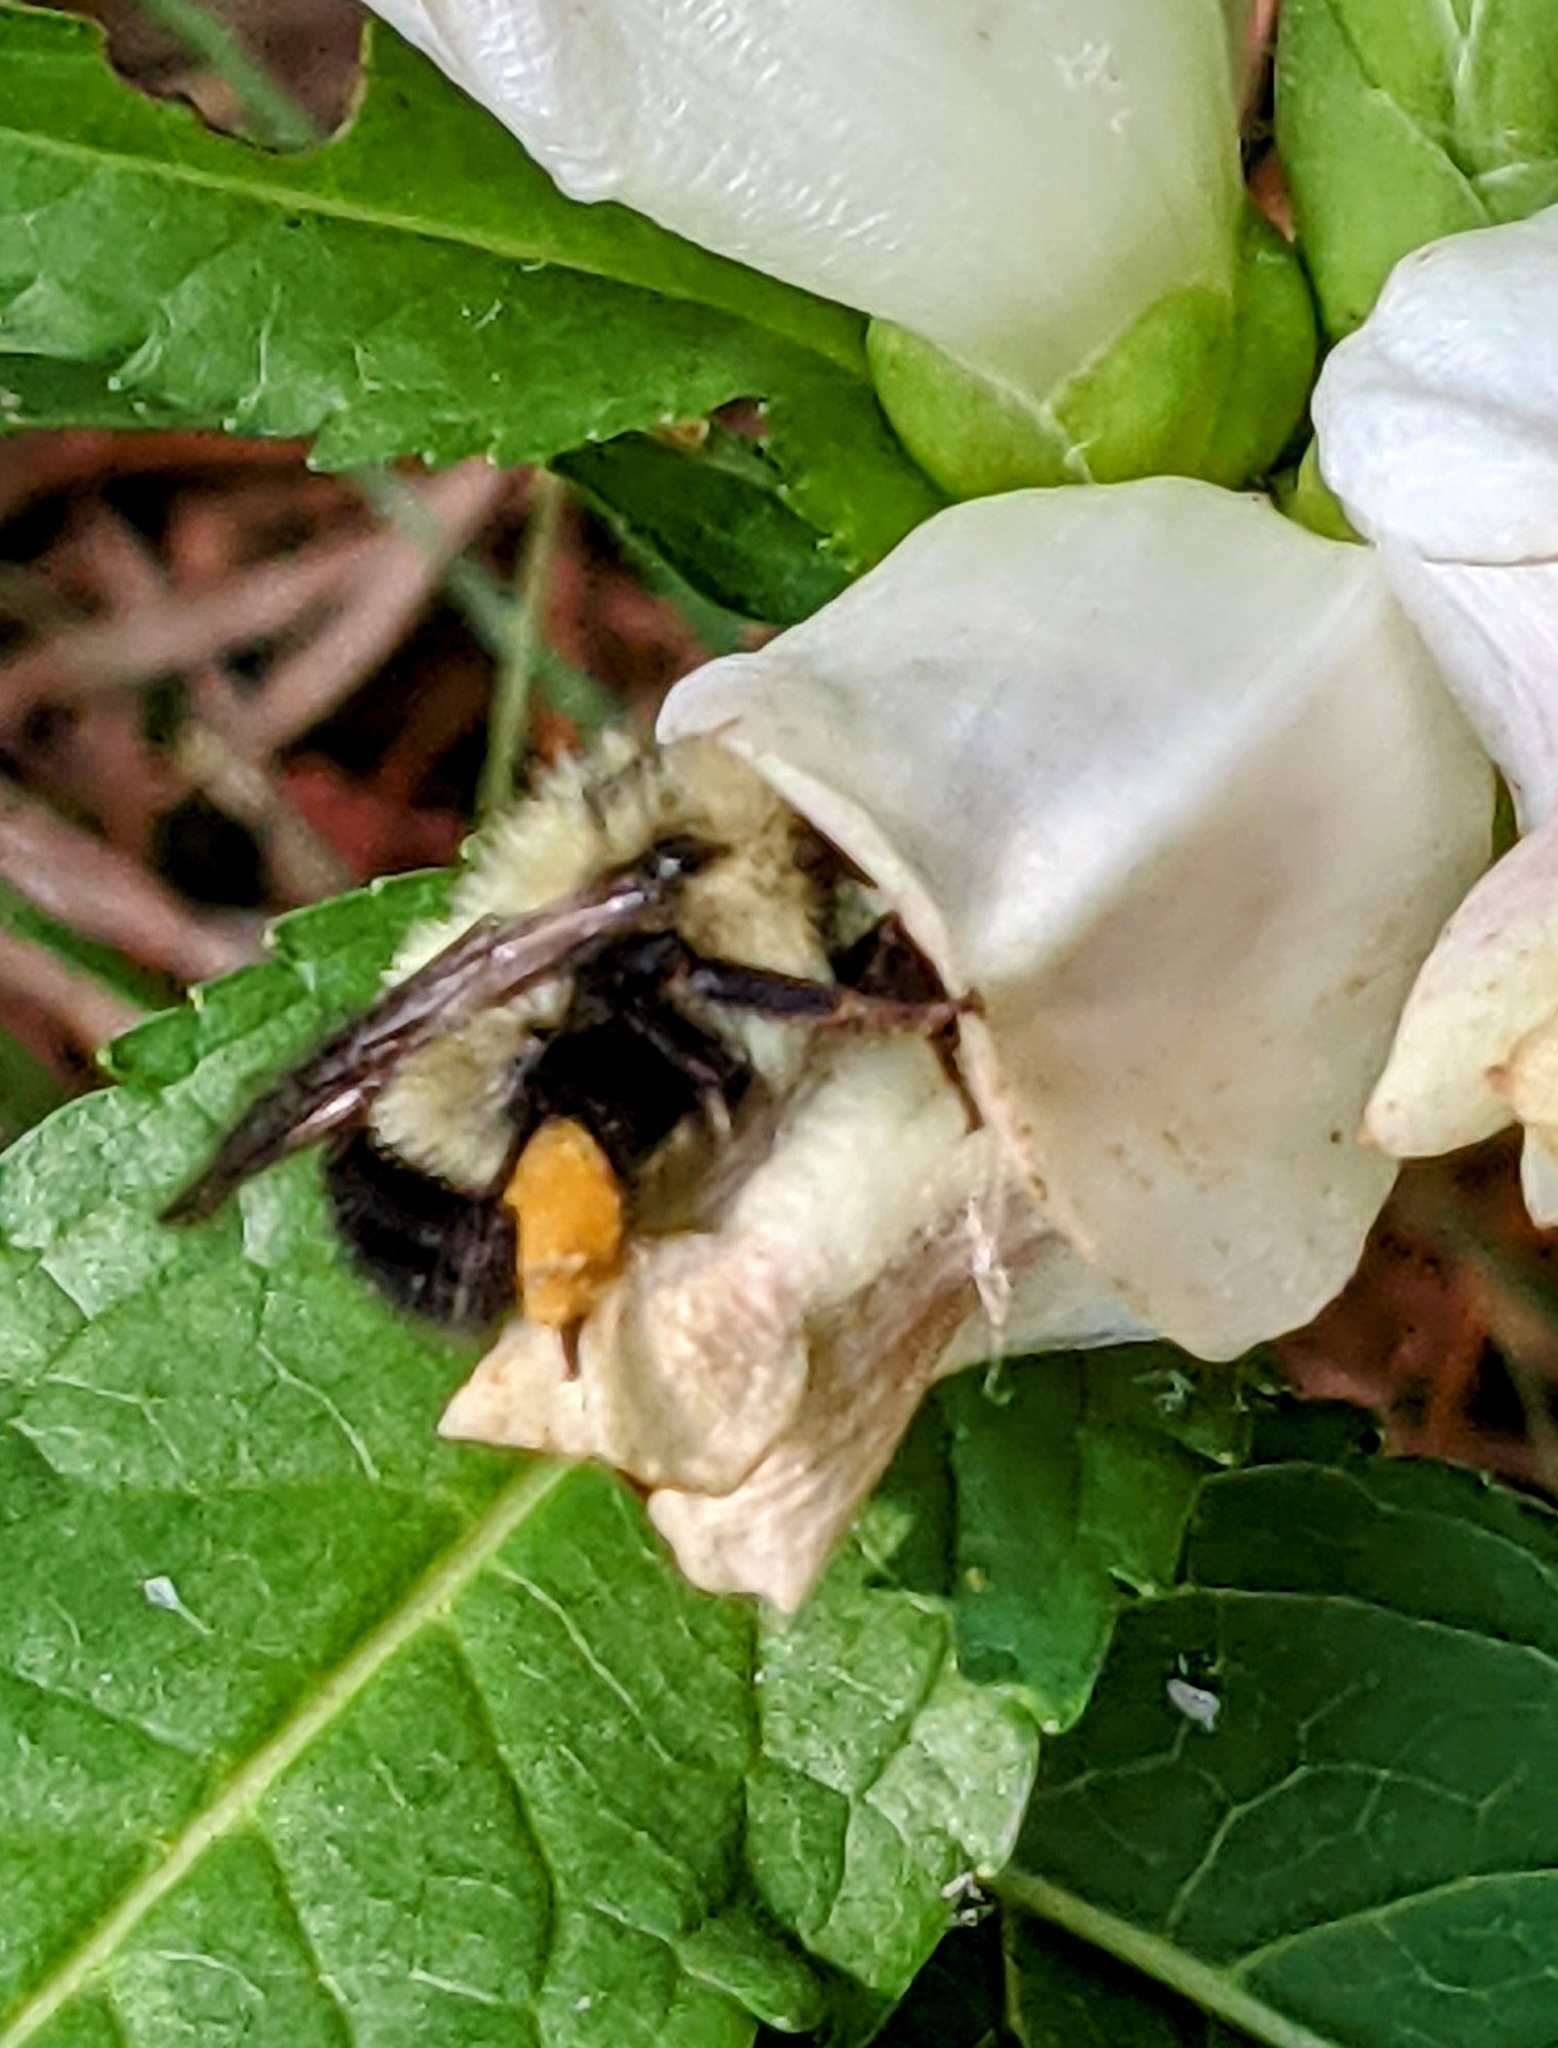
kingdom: Animalia
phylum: Arthropoda
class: Insecta
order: Hymenoptera
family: Apidae
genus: Pyrobombus
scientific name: Pyrobombus
